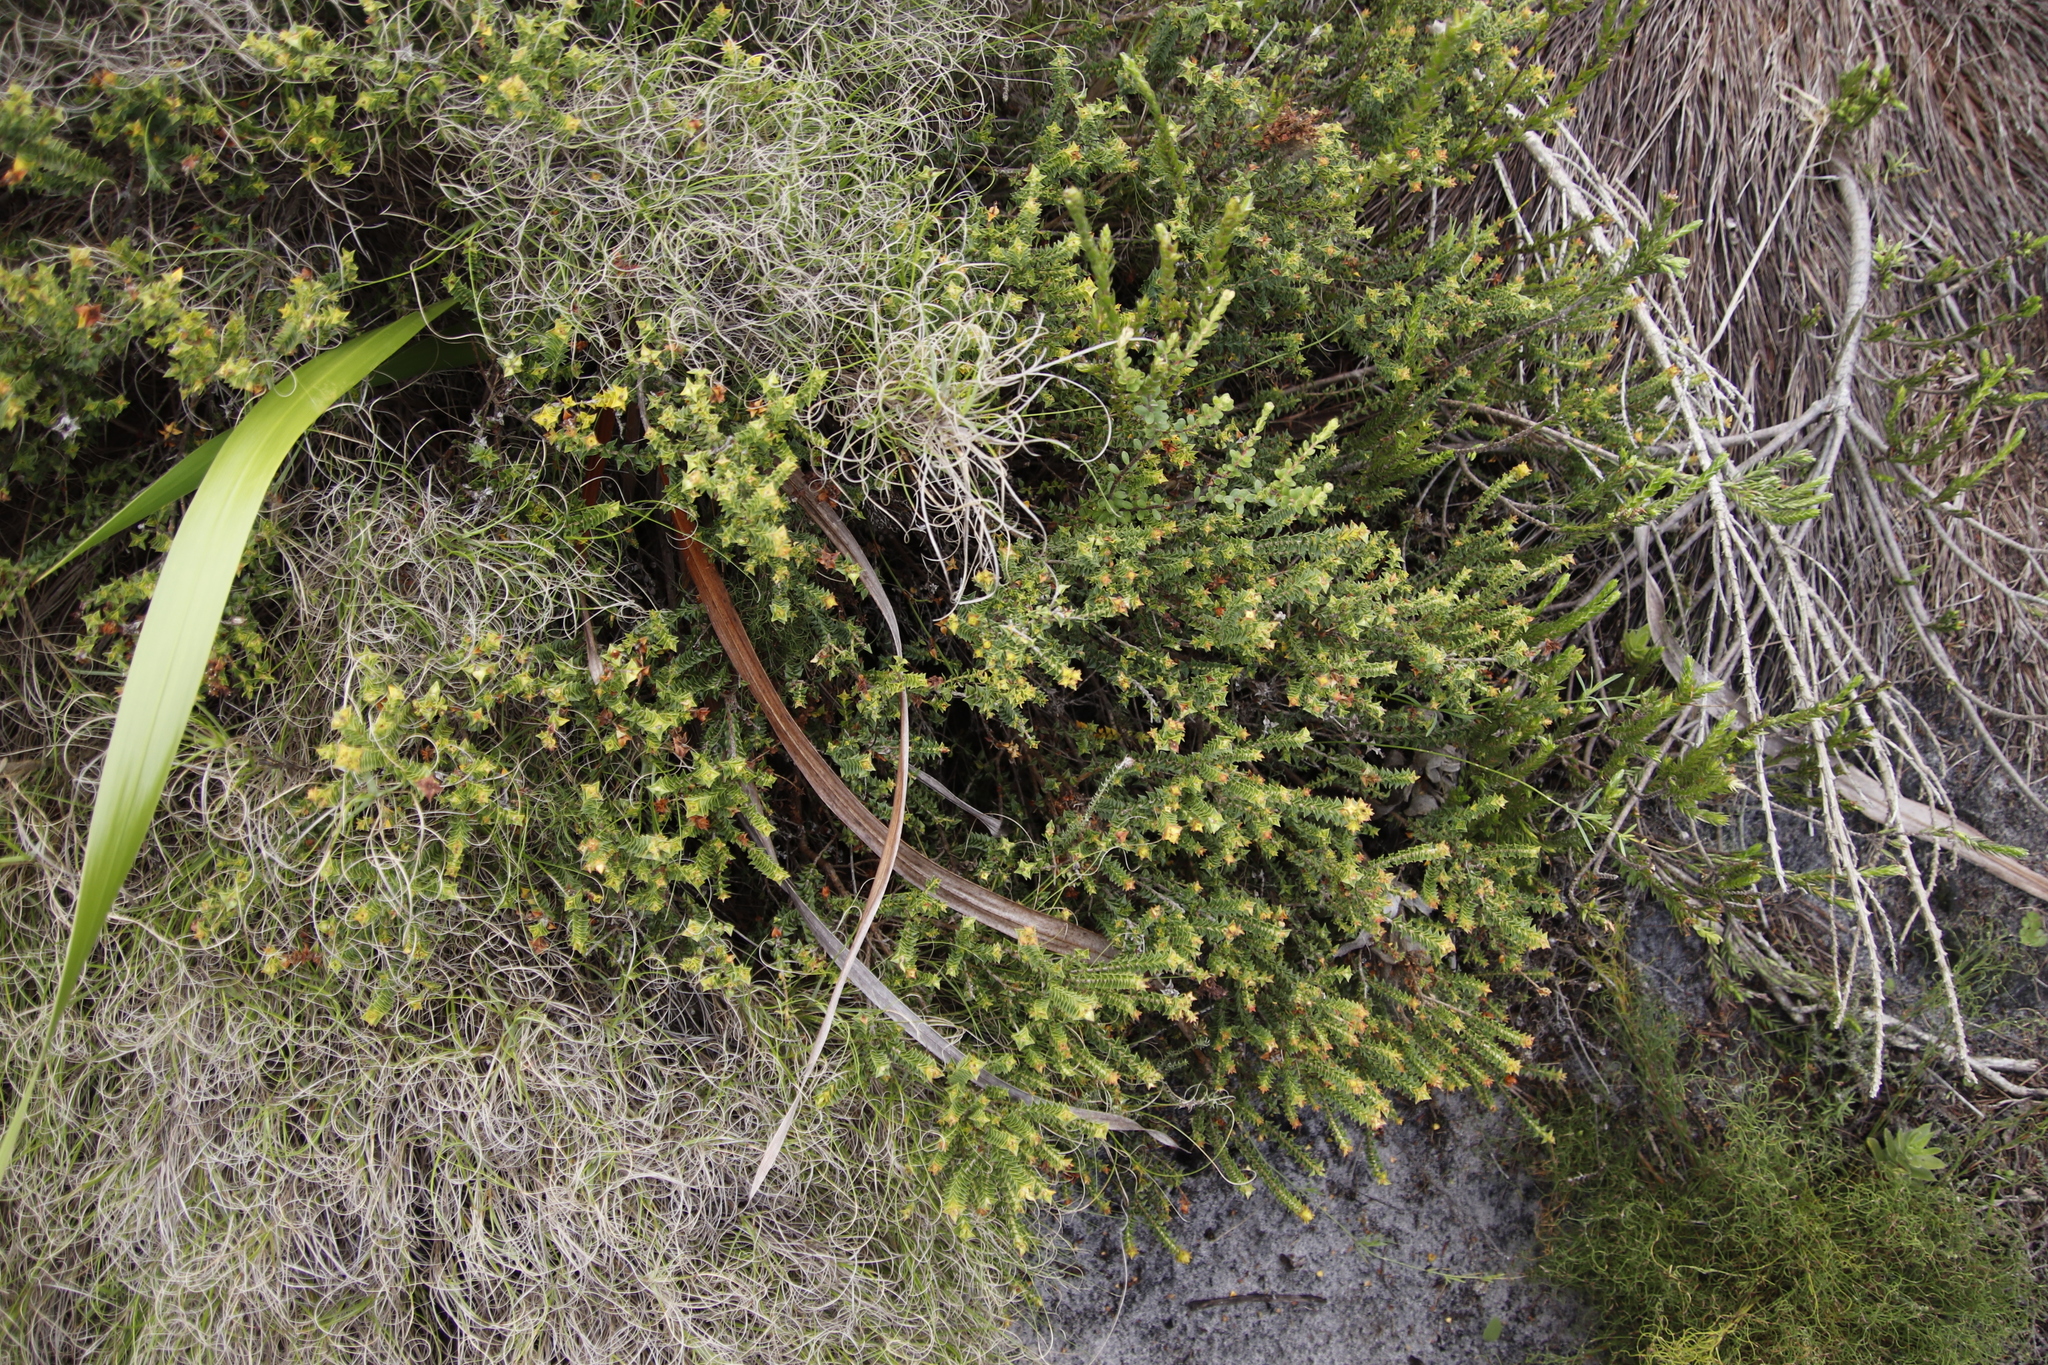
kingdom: Plantae
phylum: Tracheophyta
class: Magnoliopsida
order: Myrtales
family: Penaeaceae
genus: Penaea
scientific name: Penaea mucronata
